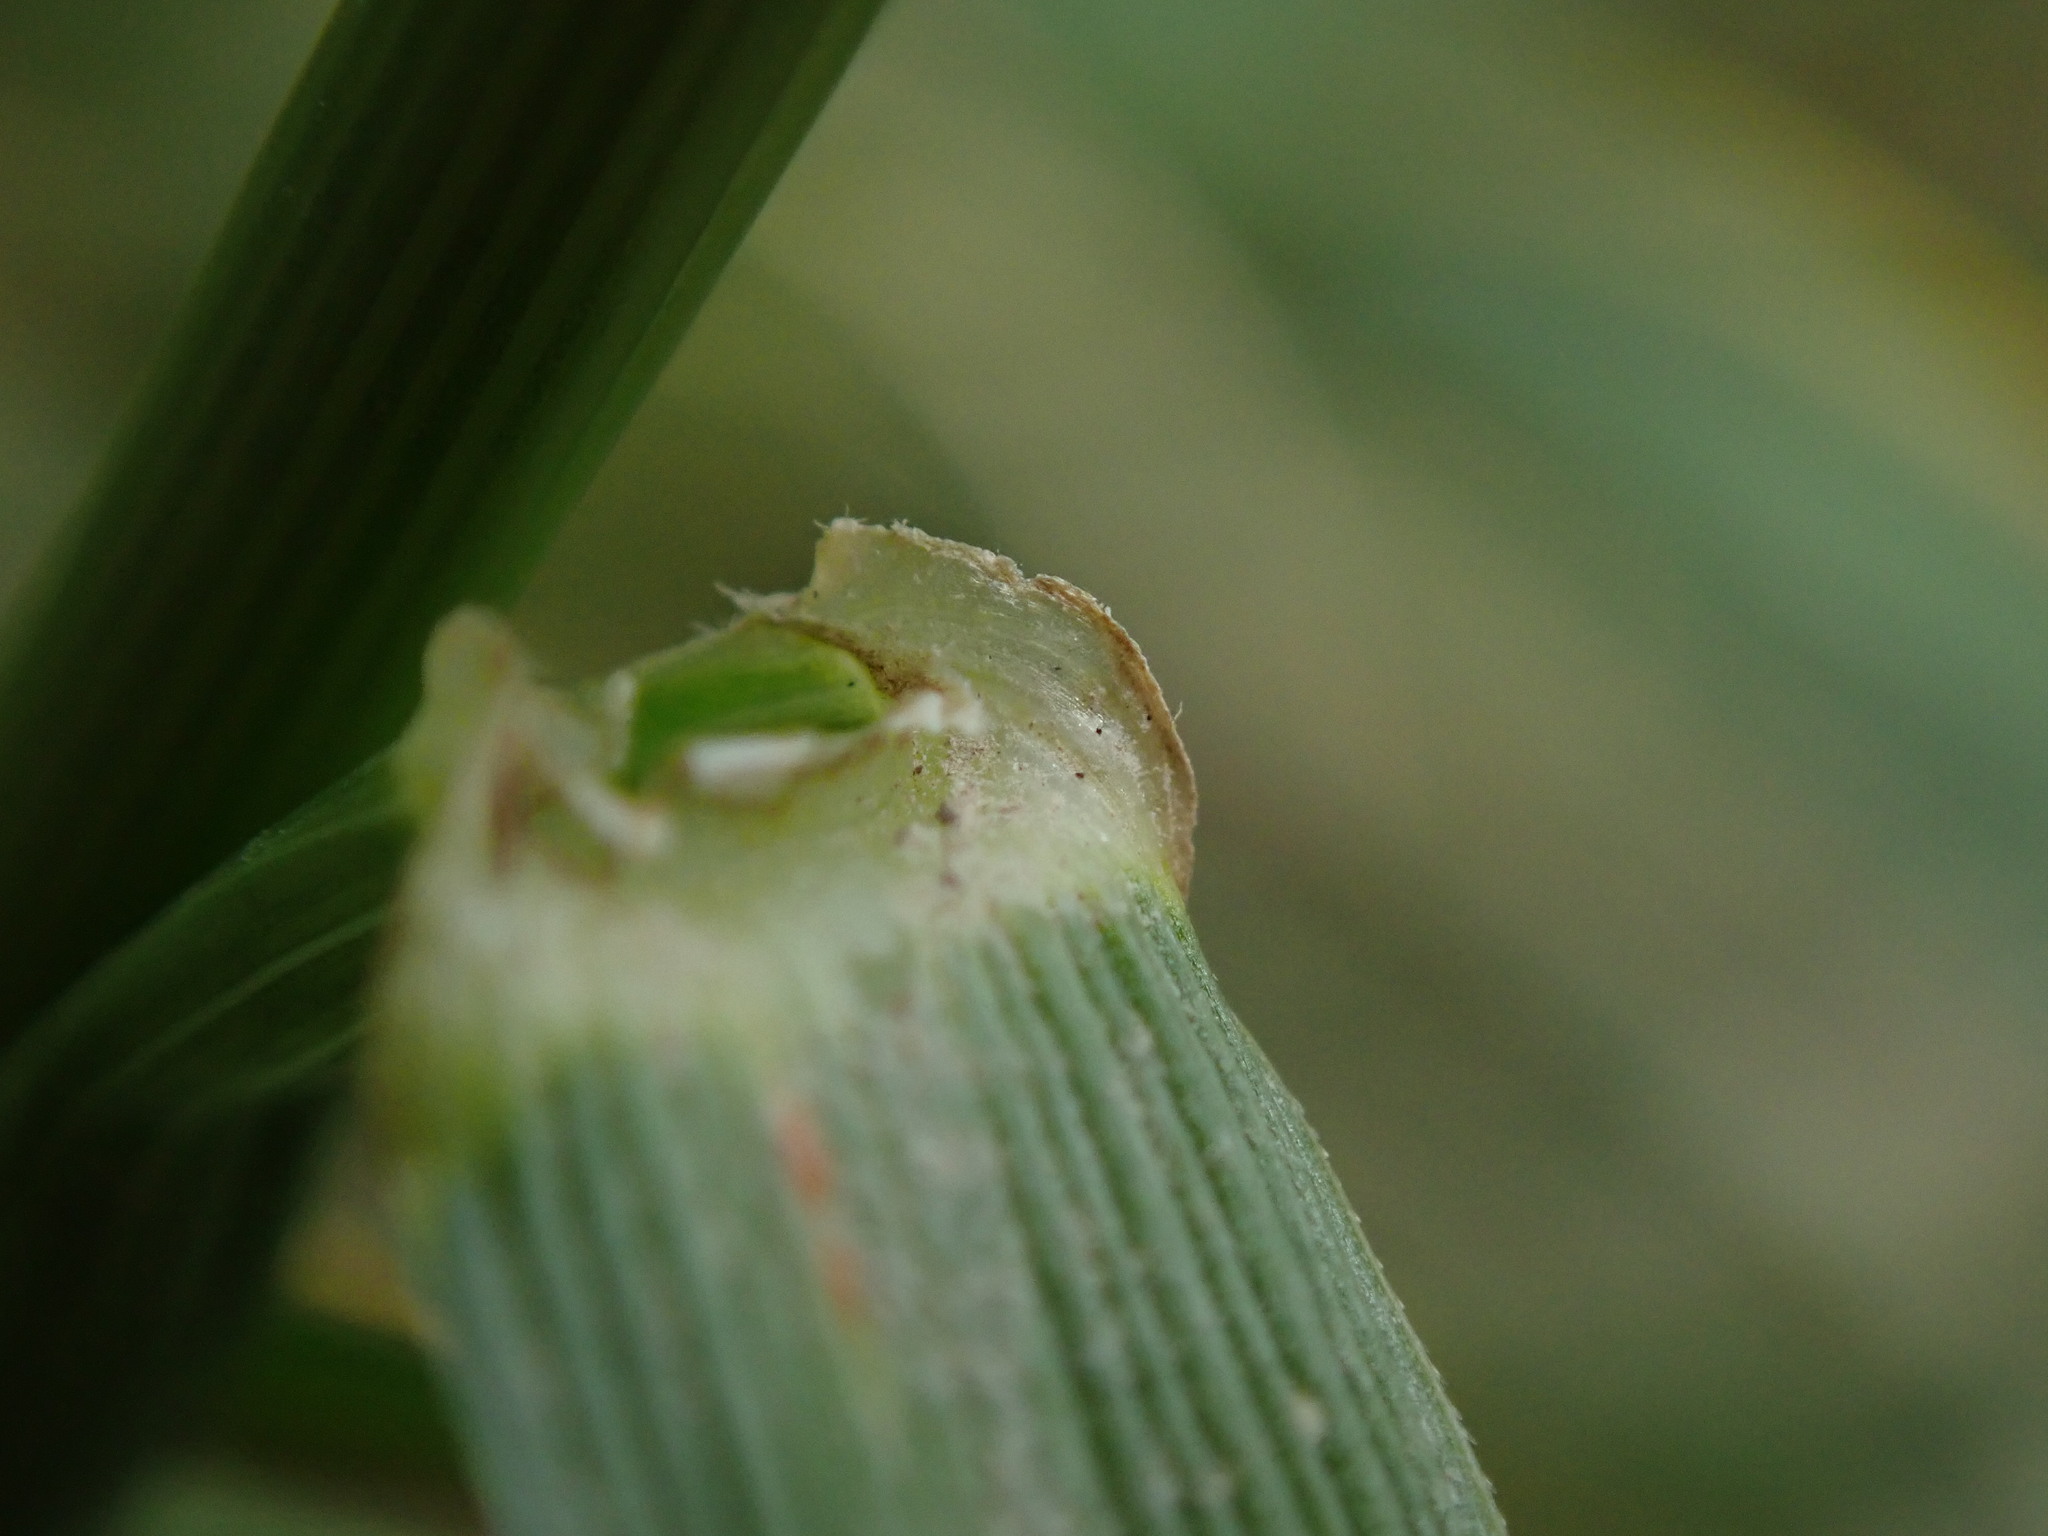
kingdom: Plantae
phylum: Tracheophyta
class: Liliopsida
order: Poales
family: Poaceae
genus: Lolium
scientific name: Lolium arundinaceum
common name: Reed fescue
